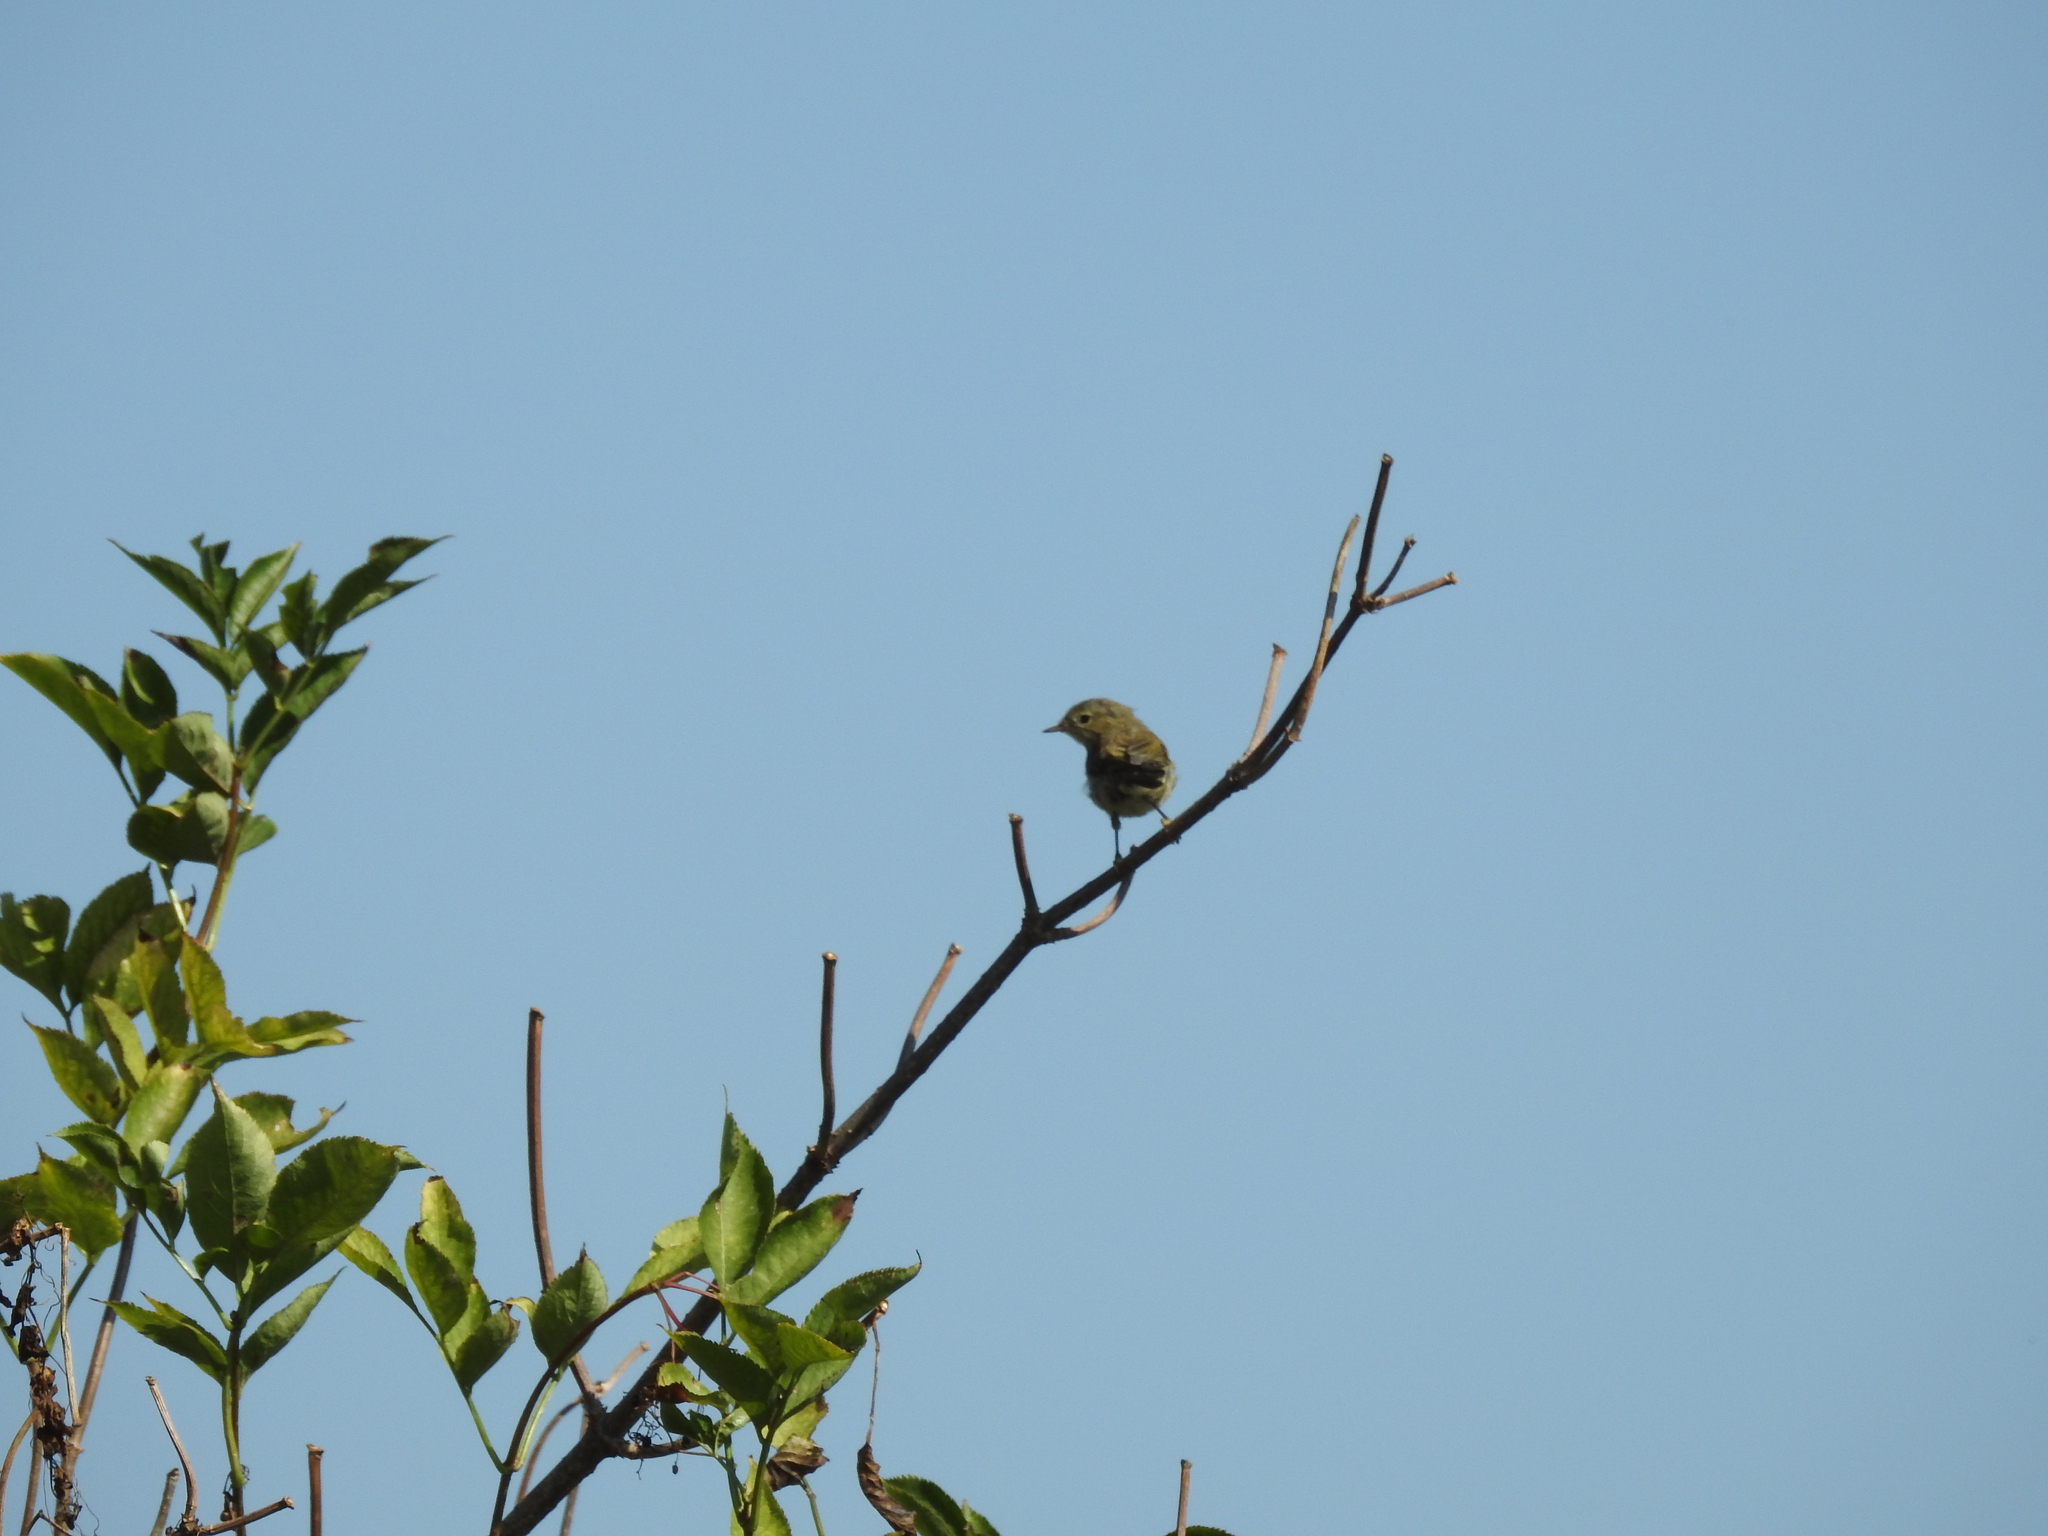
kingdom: Animalia
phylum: Chordata
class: Aves
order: Passeriformes
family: Phylloscopidae
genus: Phylloscopus
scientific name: Phylloscopus collybita
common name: Common chiffchaff
